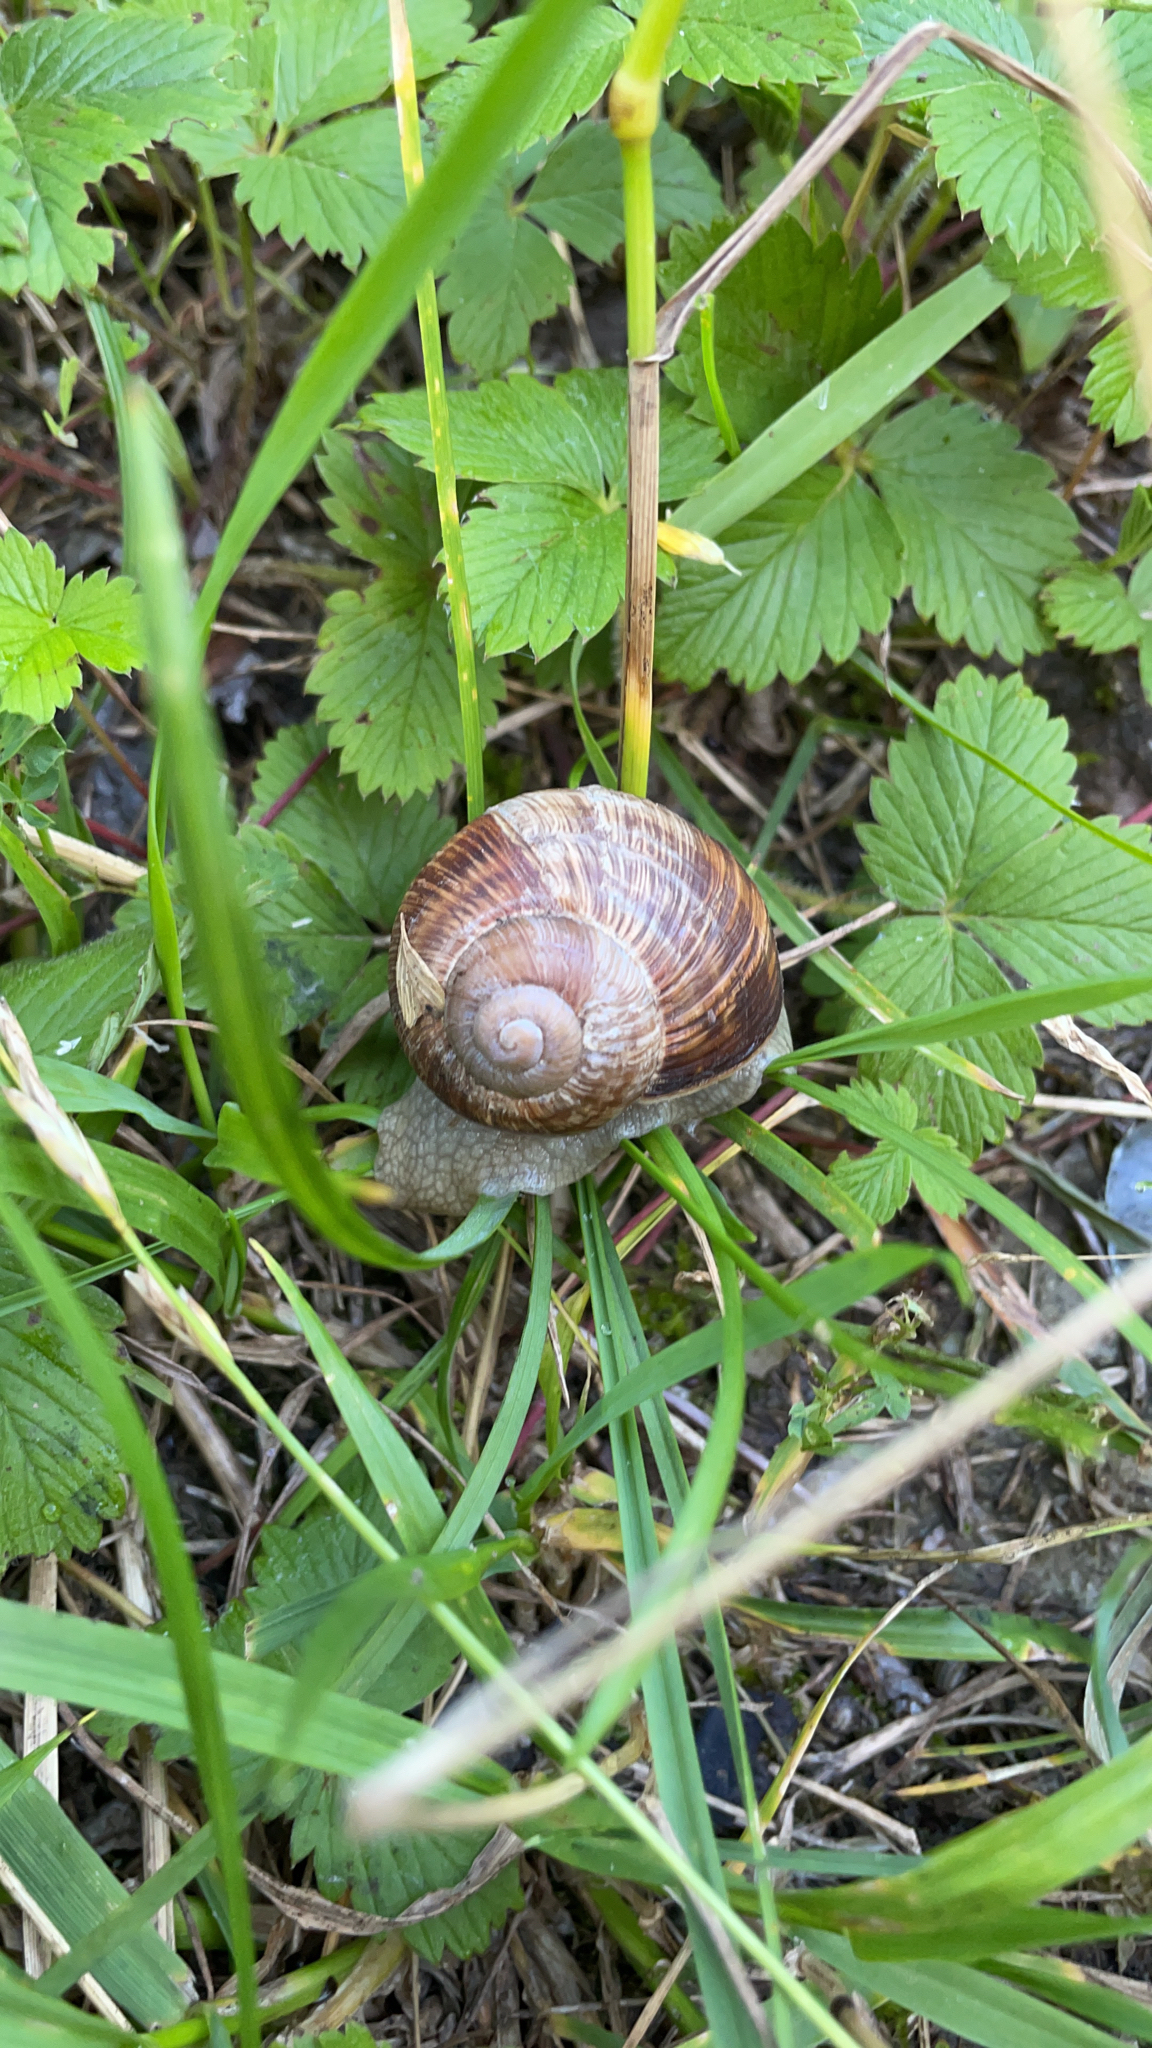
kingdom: Animalia
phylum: Mollusca
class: Gastropoda
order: Stylommatophora
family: Helicidae
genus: Helix
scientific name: Helix pomatia
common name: Roman snail
